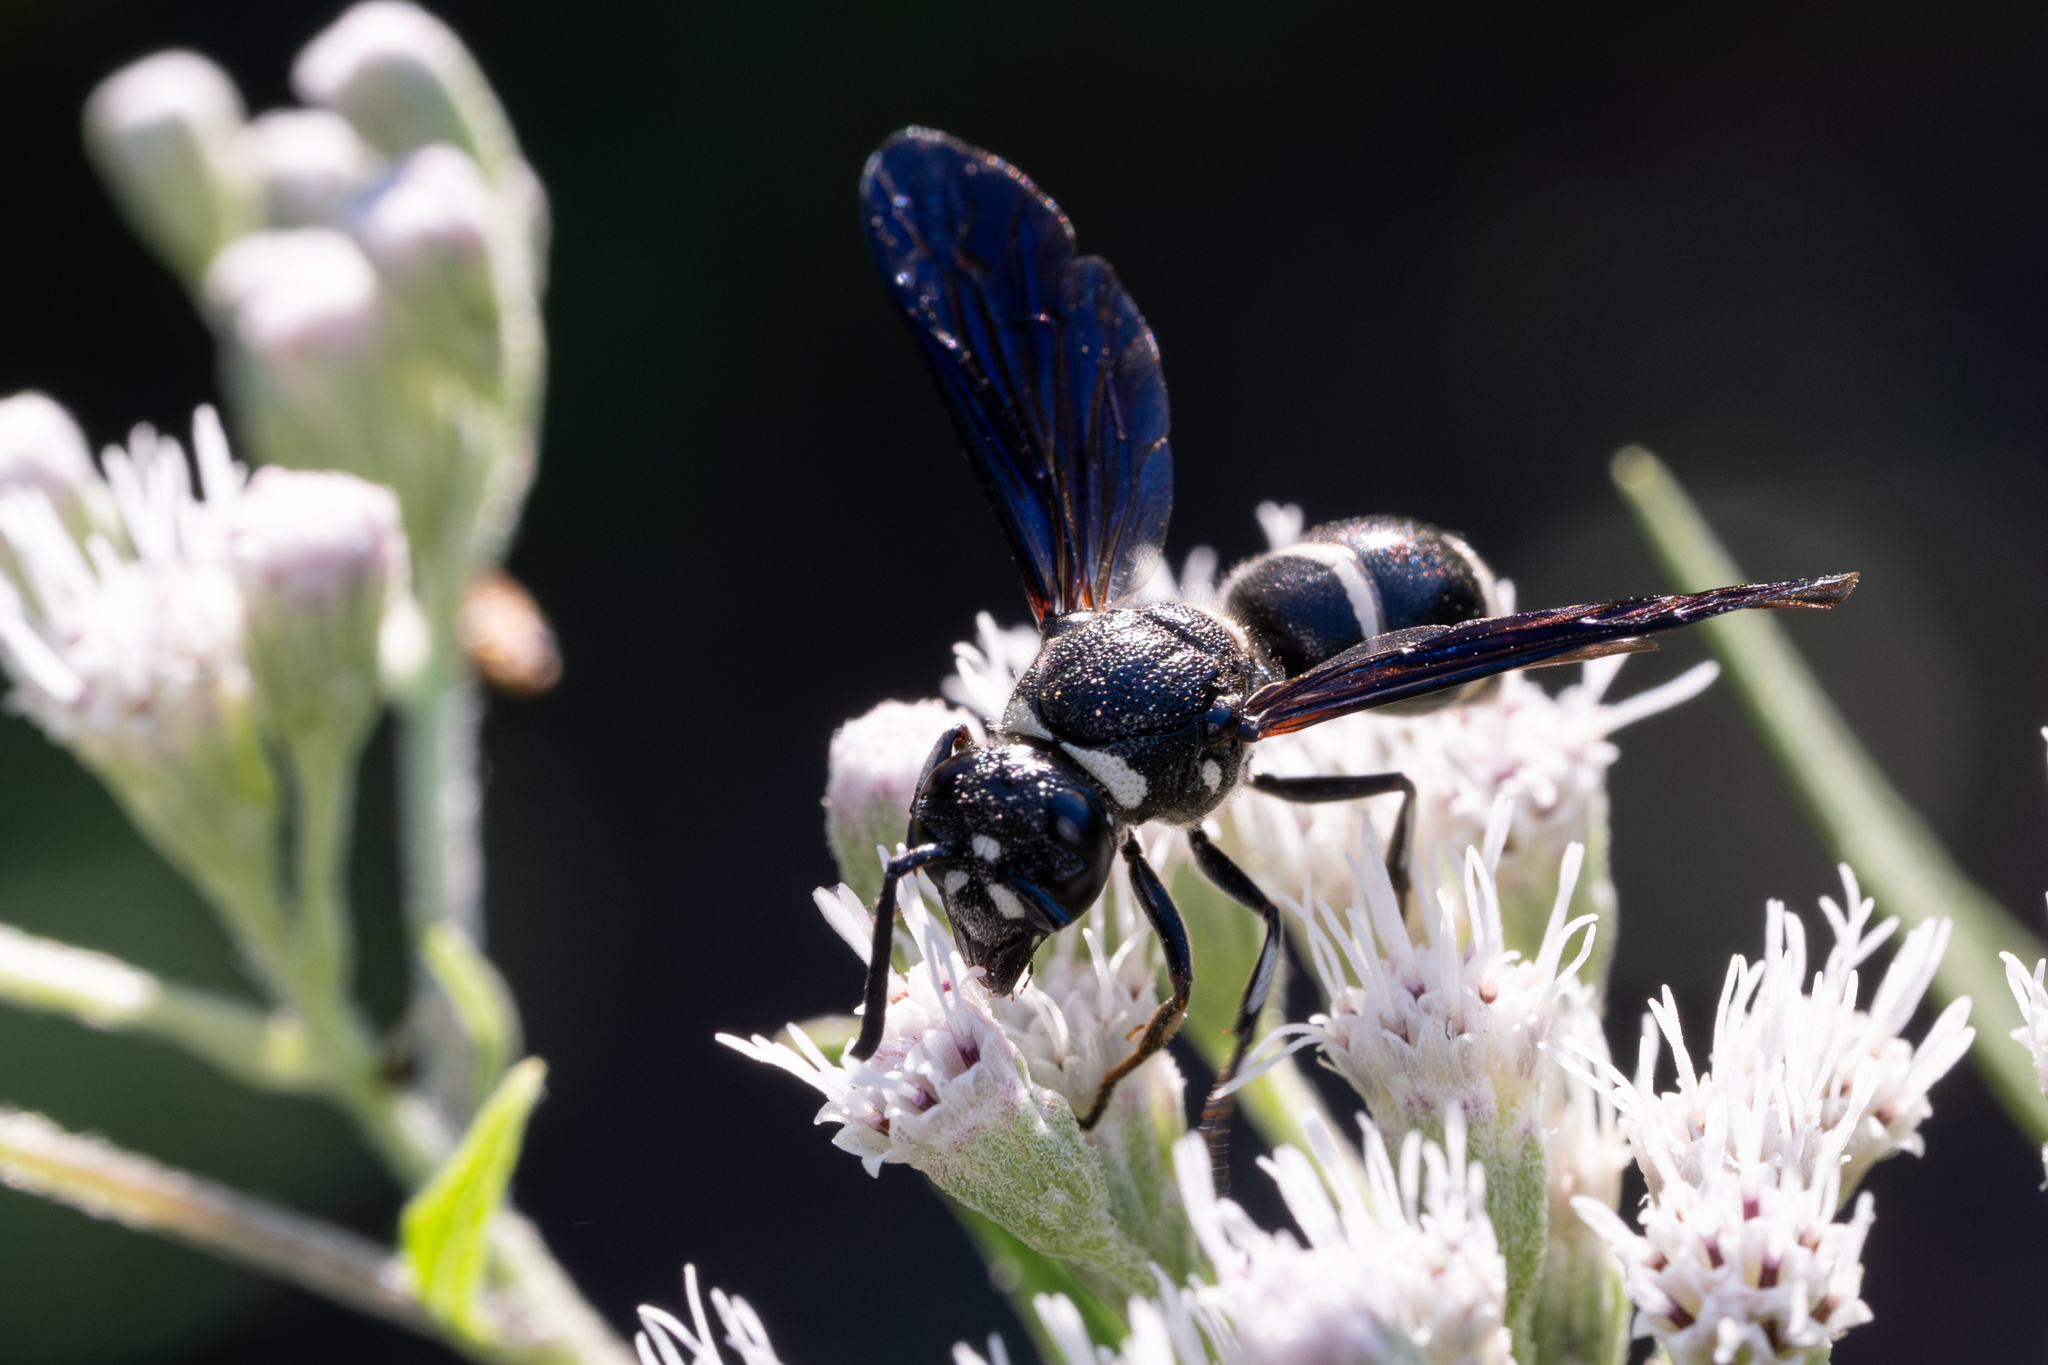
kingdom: Animalia
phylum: Arthropoda
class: Insecta
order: Hymenoptera
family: Eumenidae
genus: Euodynerus
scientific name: Euodynerus schwarzi
